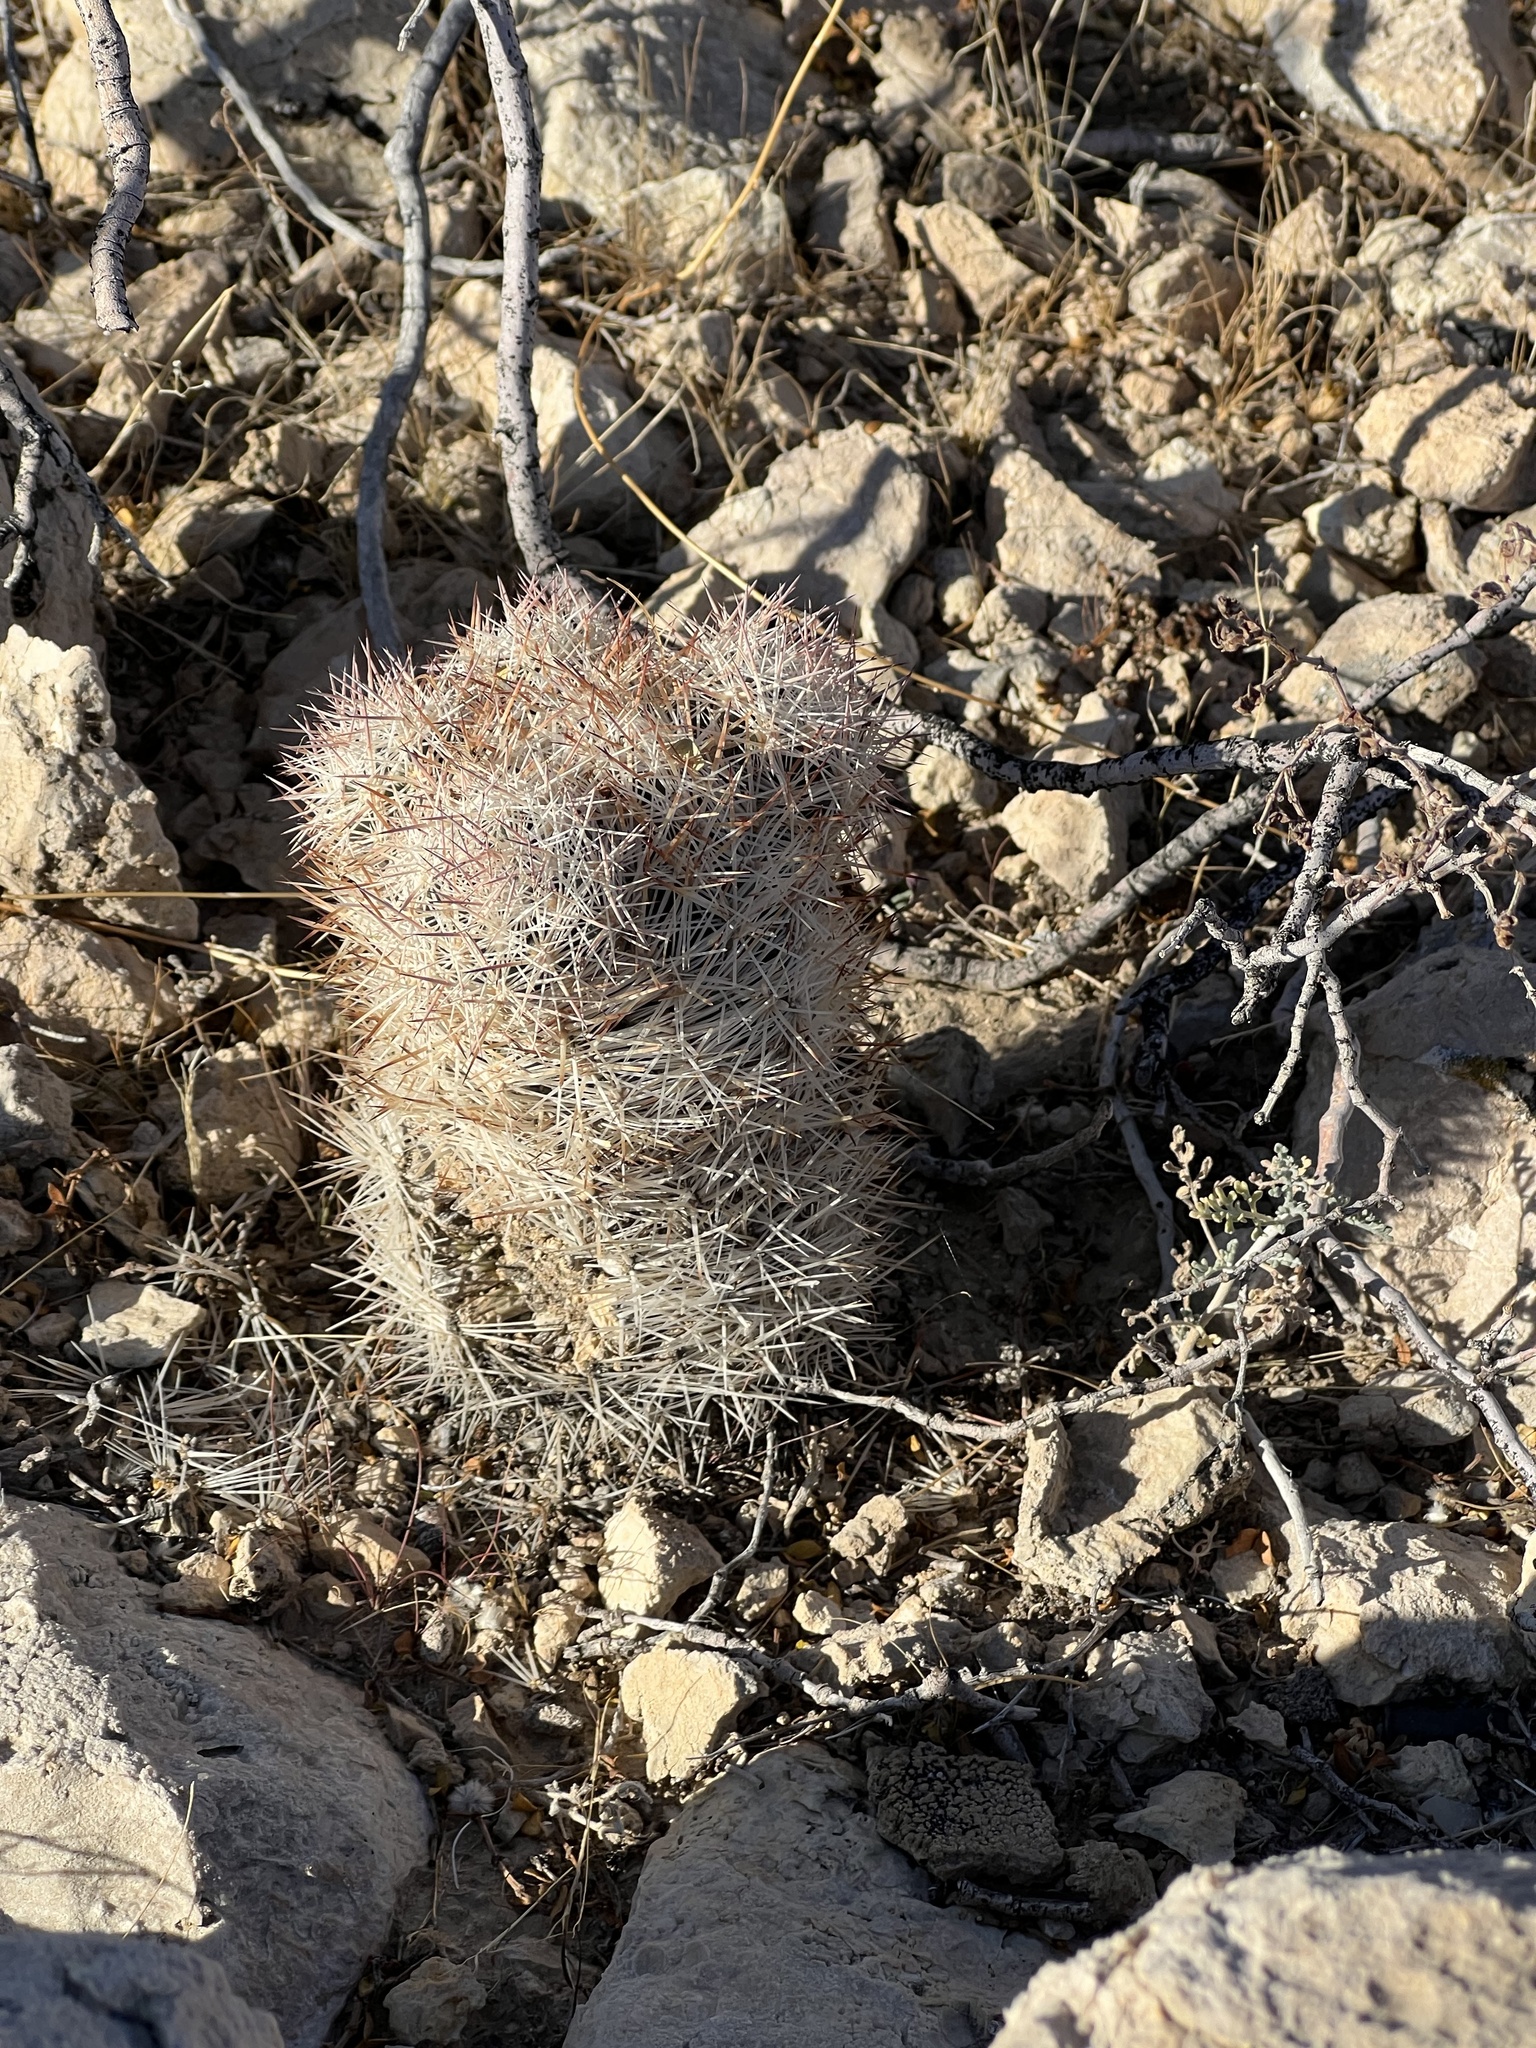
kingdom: Plantae
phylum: Tracheophyta
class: Magnoliopsida
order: Caryophyllales
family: Cactaceae
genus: Pelecyphora
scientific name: Pelecyphora dasyacantha
